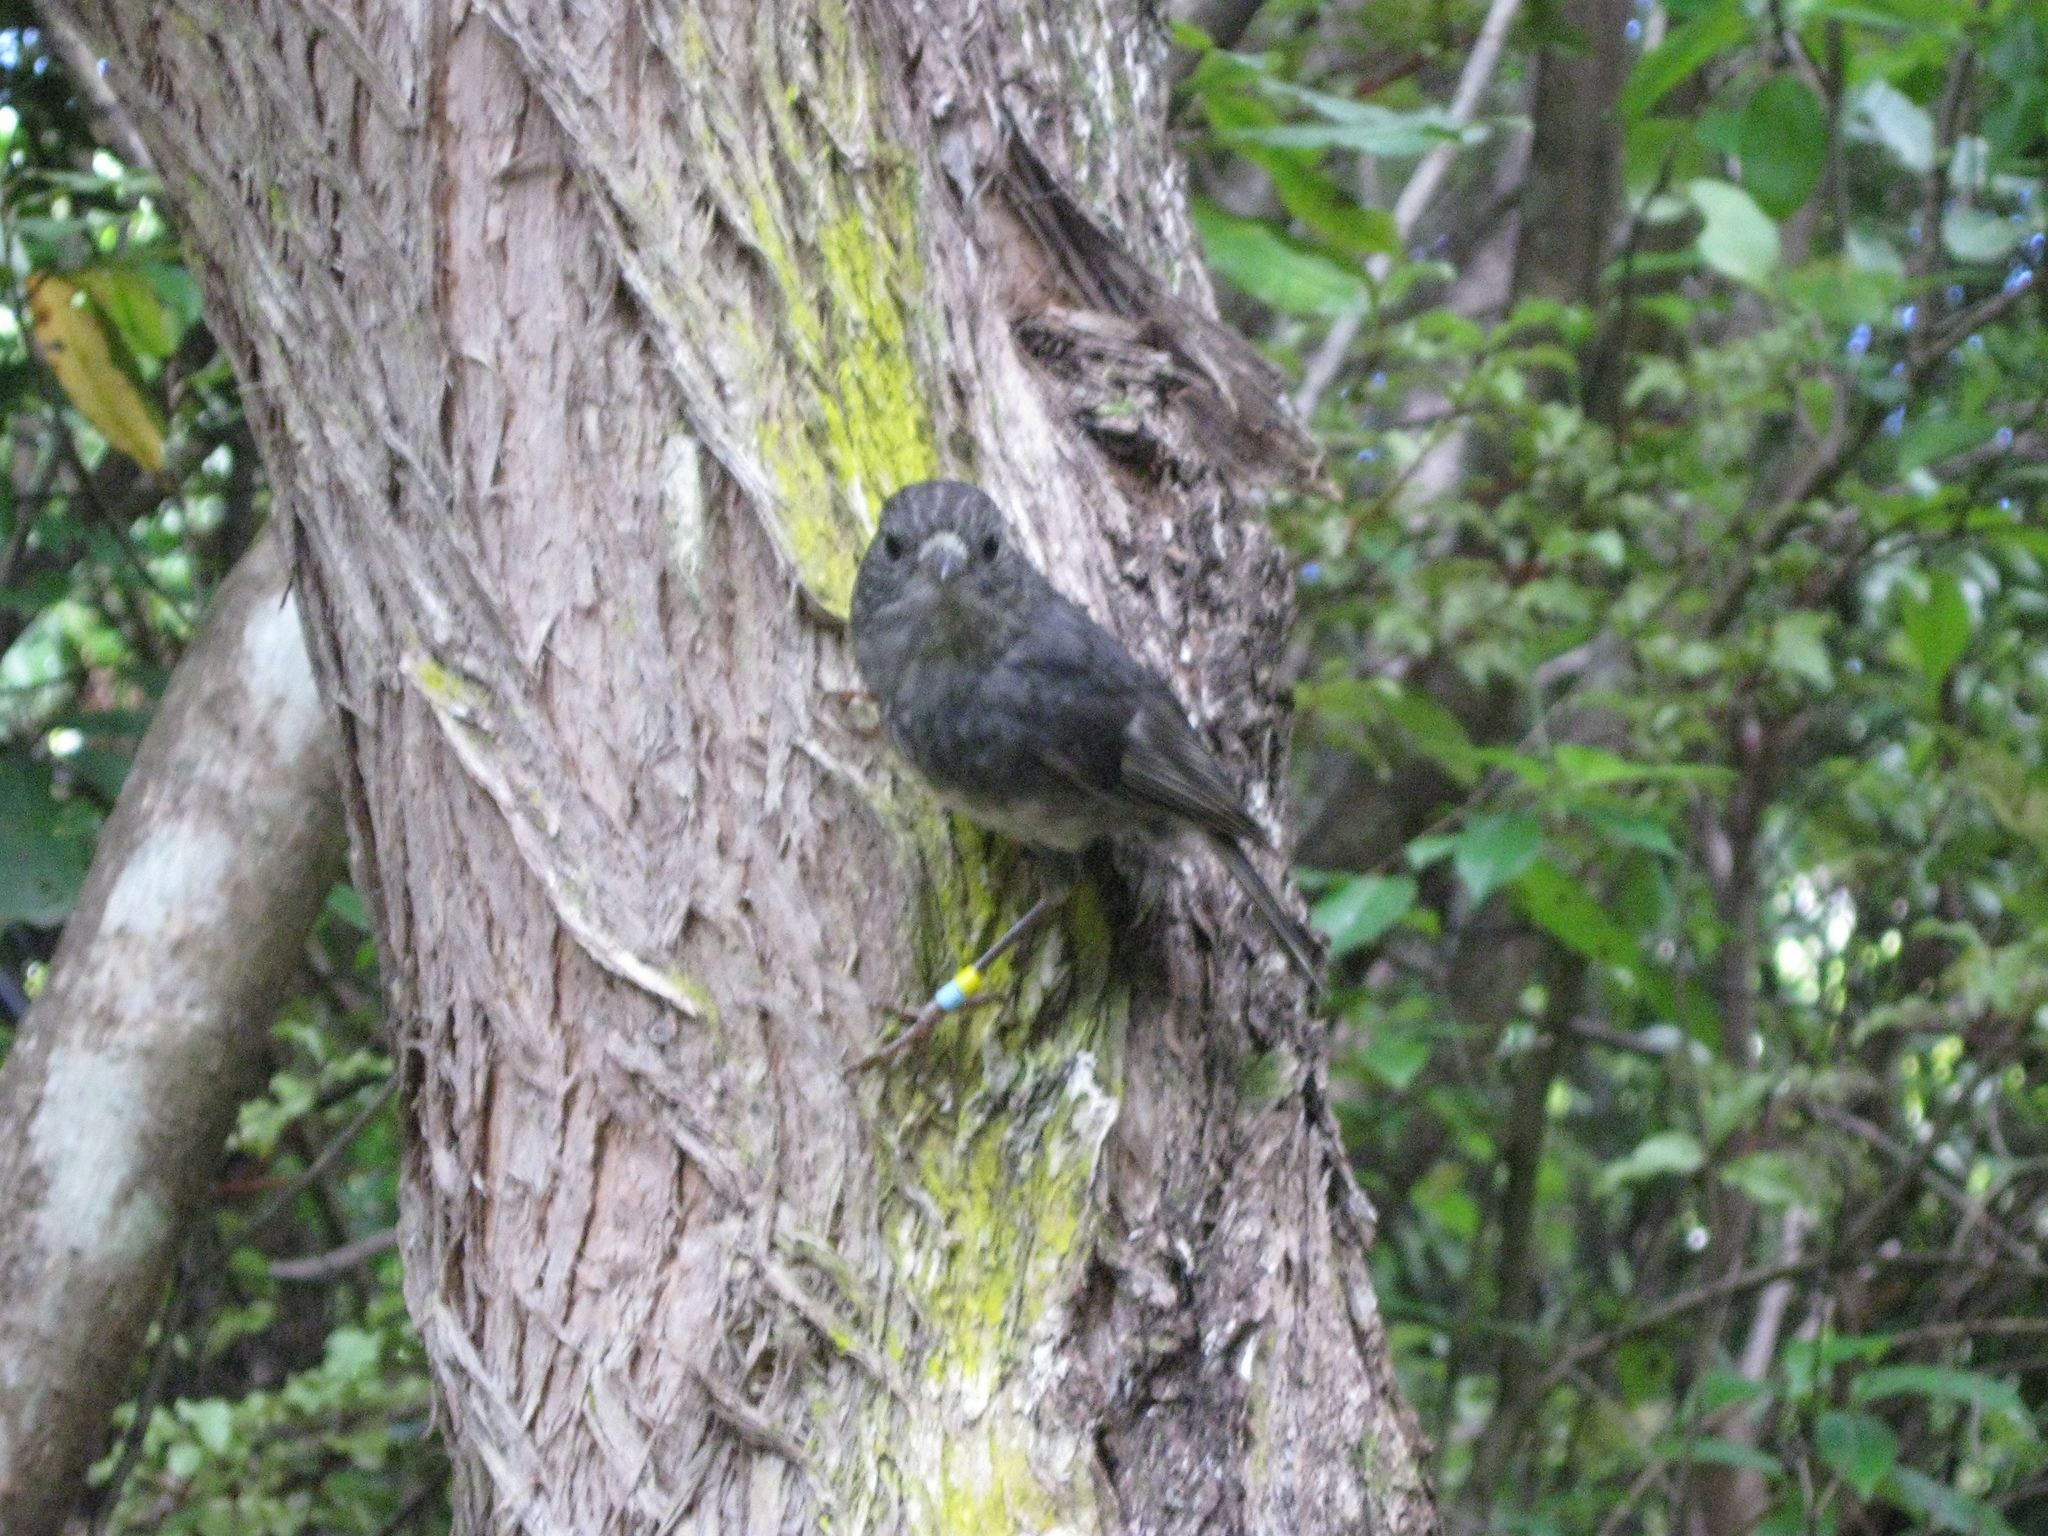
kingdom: Animalia
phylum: Chordata
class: Aves
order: Passeriformes
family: Petroicidae
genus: Petroica
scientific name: Petroica australis
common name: New zealand robin
